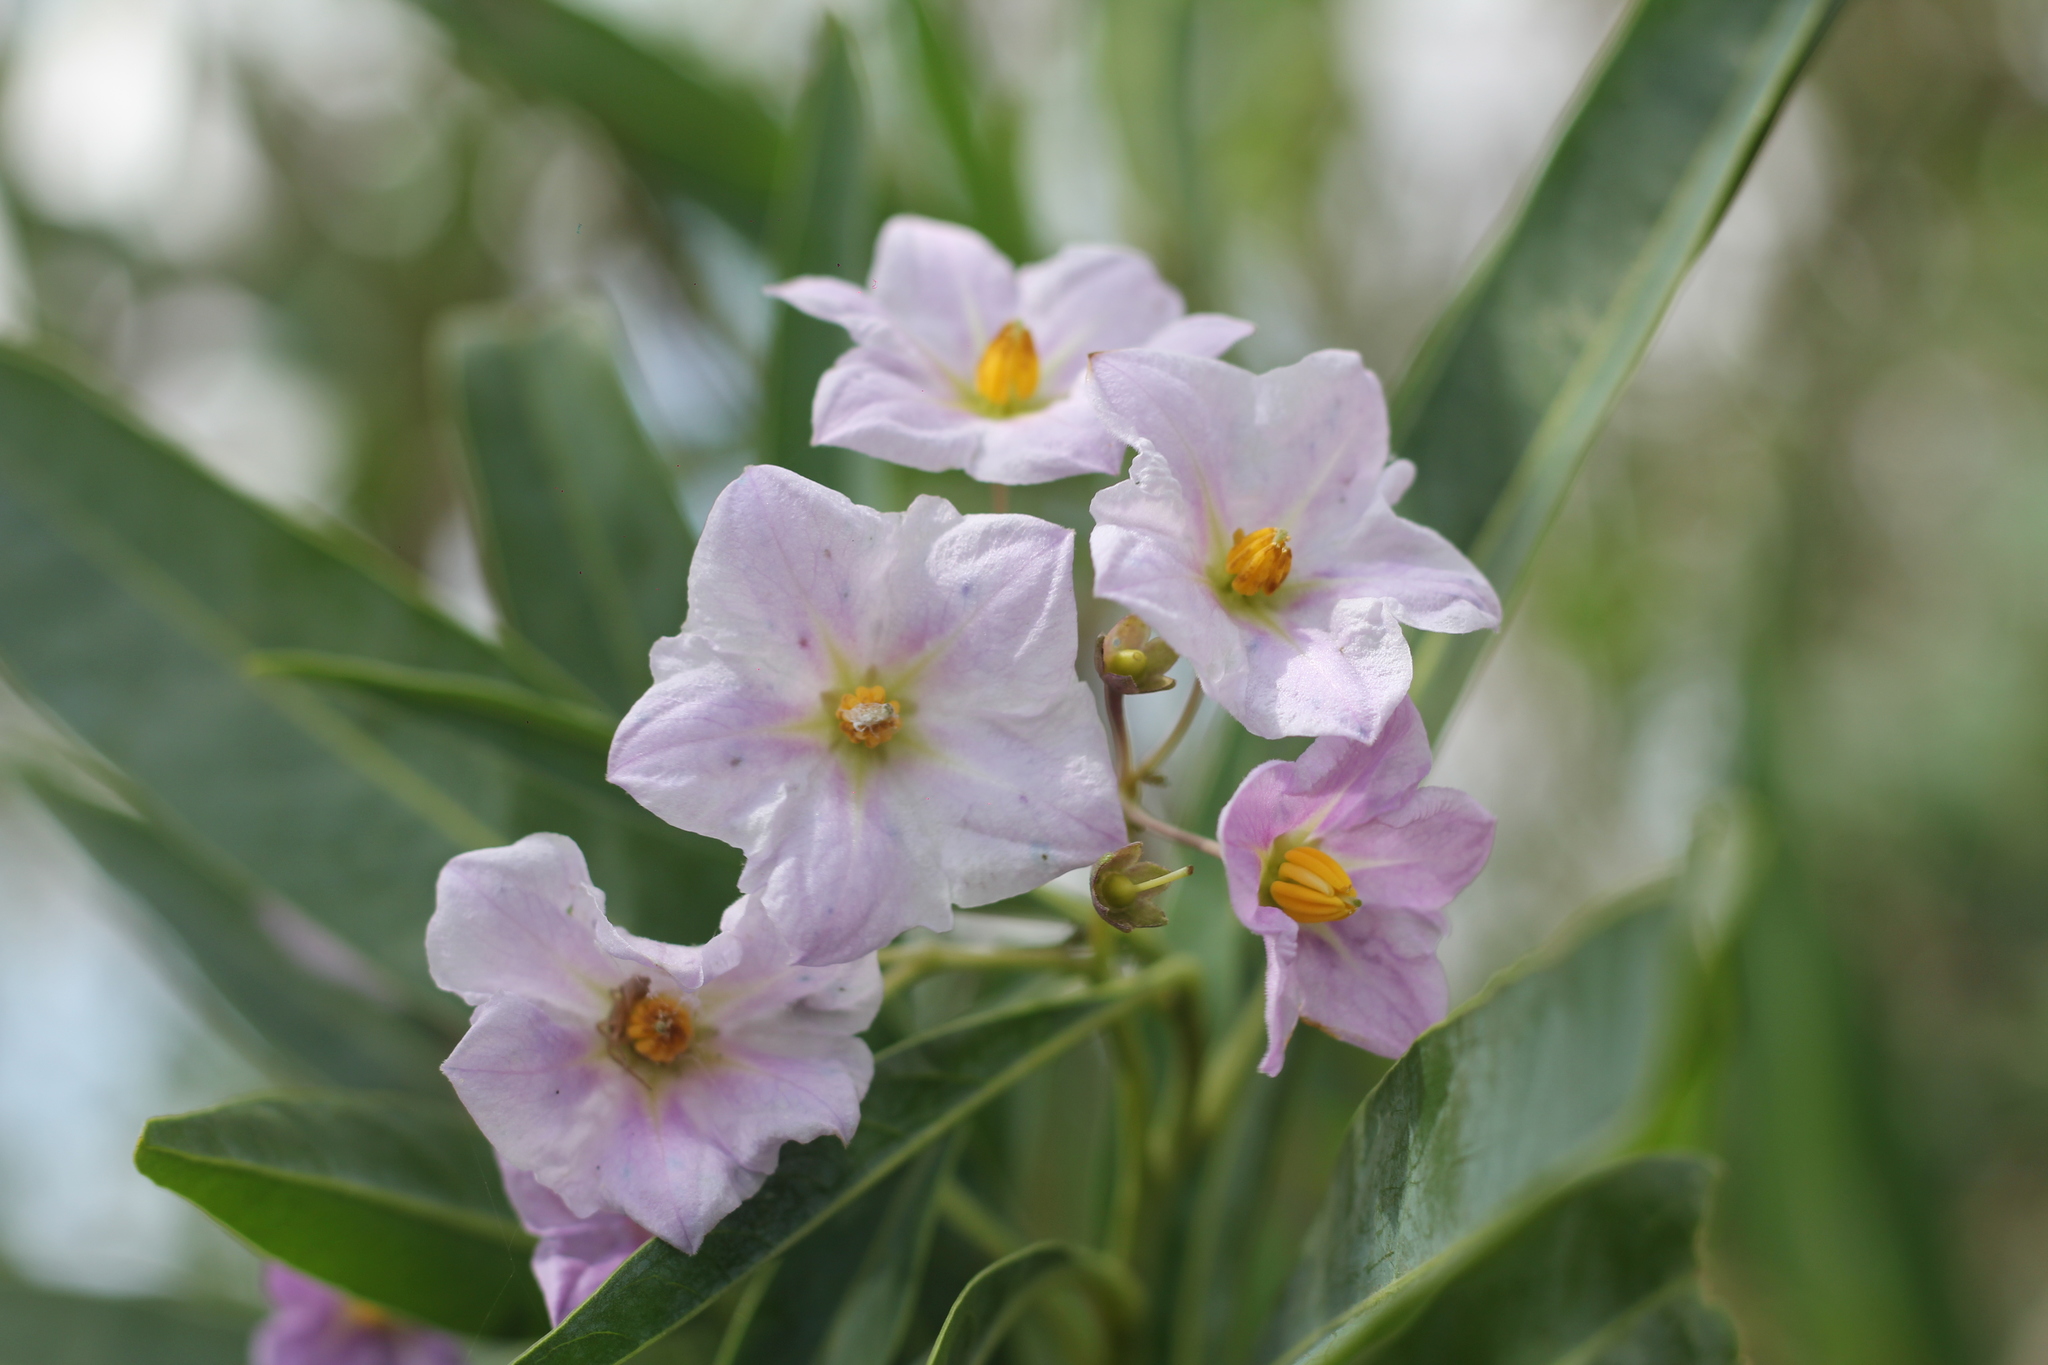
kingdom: Plantae
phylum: Tracheophyta
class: Magnoliopsida
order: Solanales
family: Solanaceae
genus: Solanum
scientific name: Solanum glaucophyllum
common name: Waxyleaf nightshade
